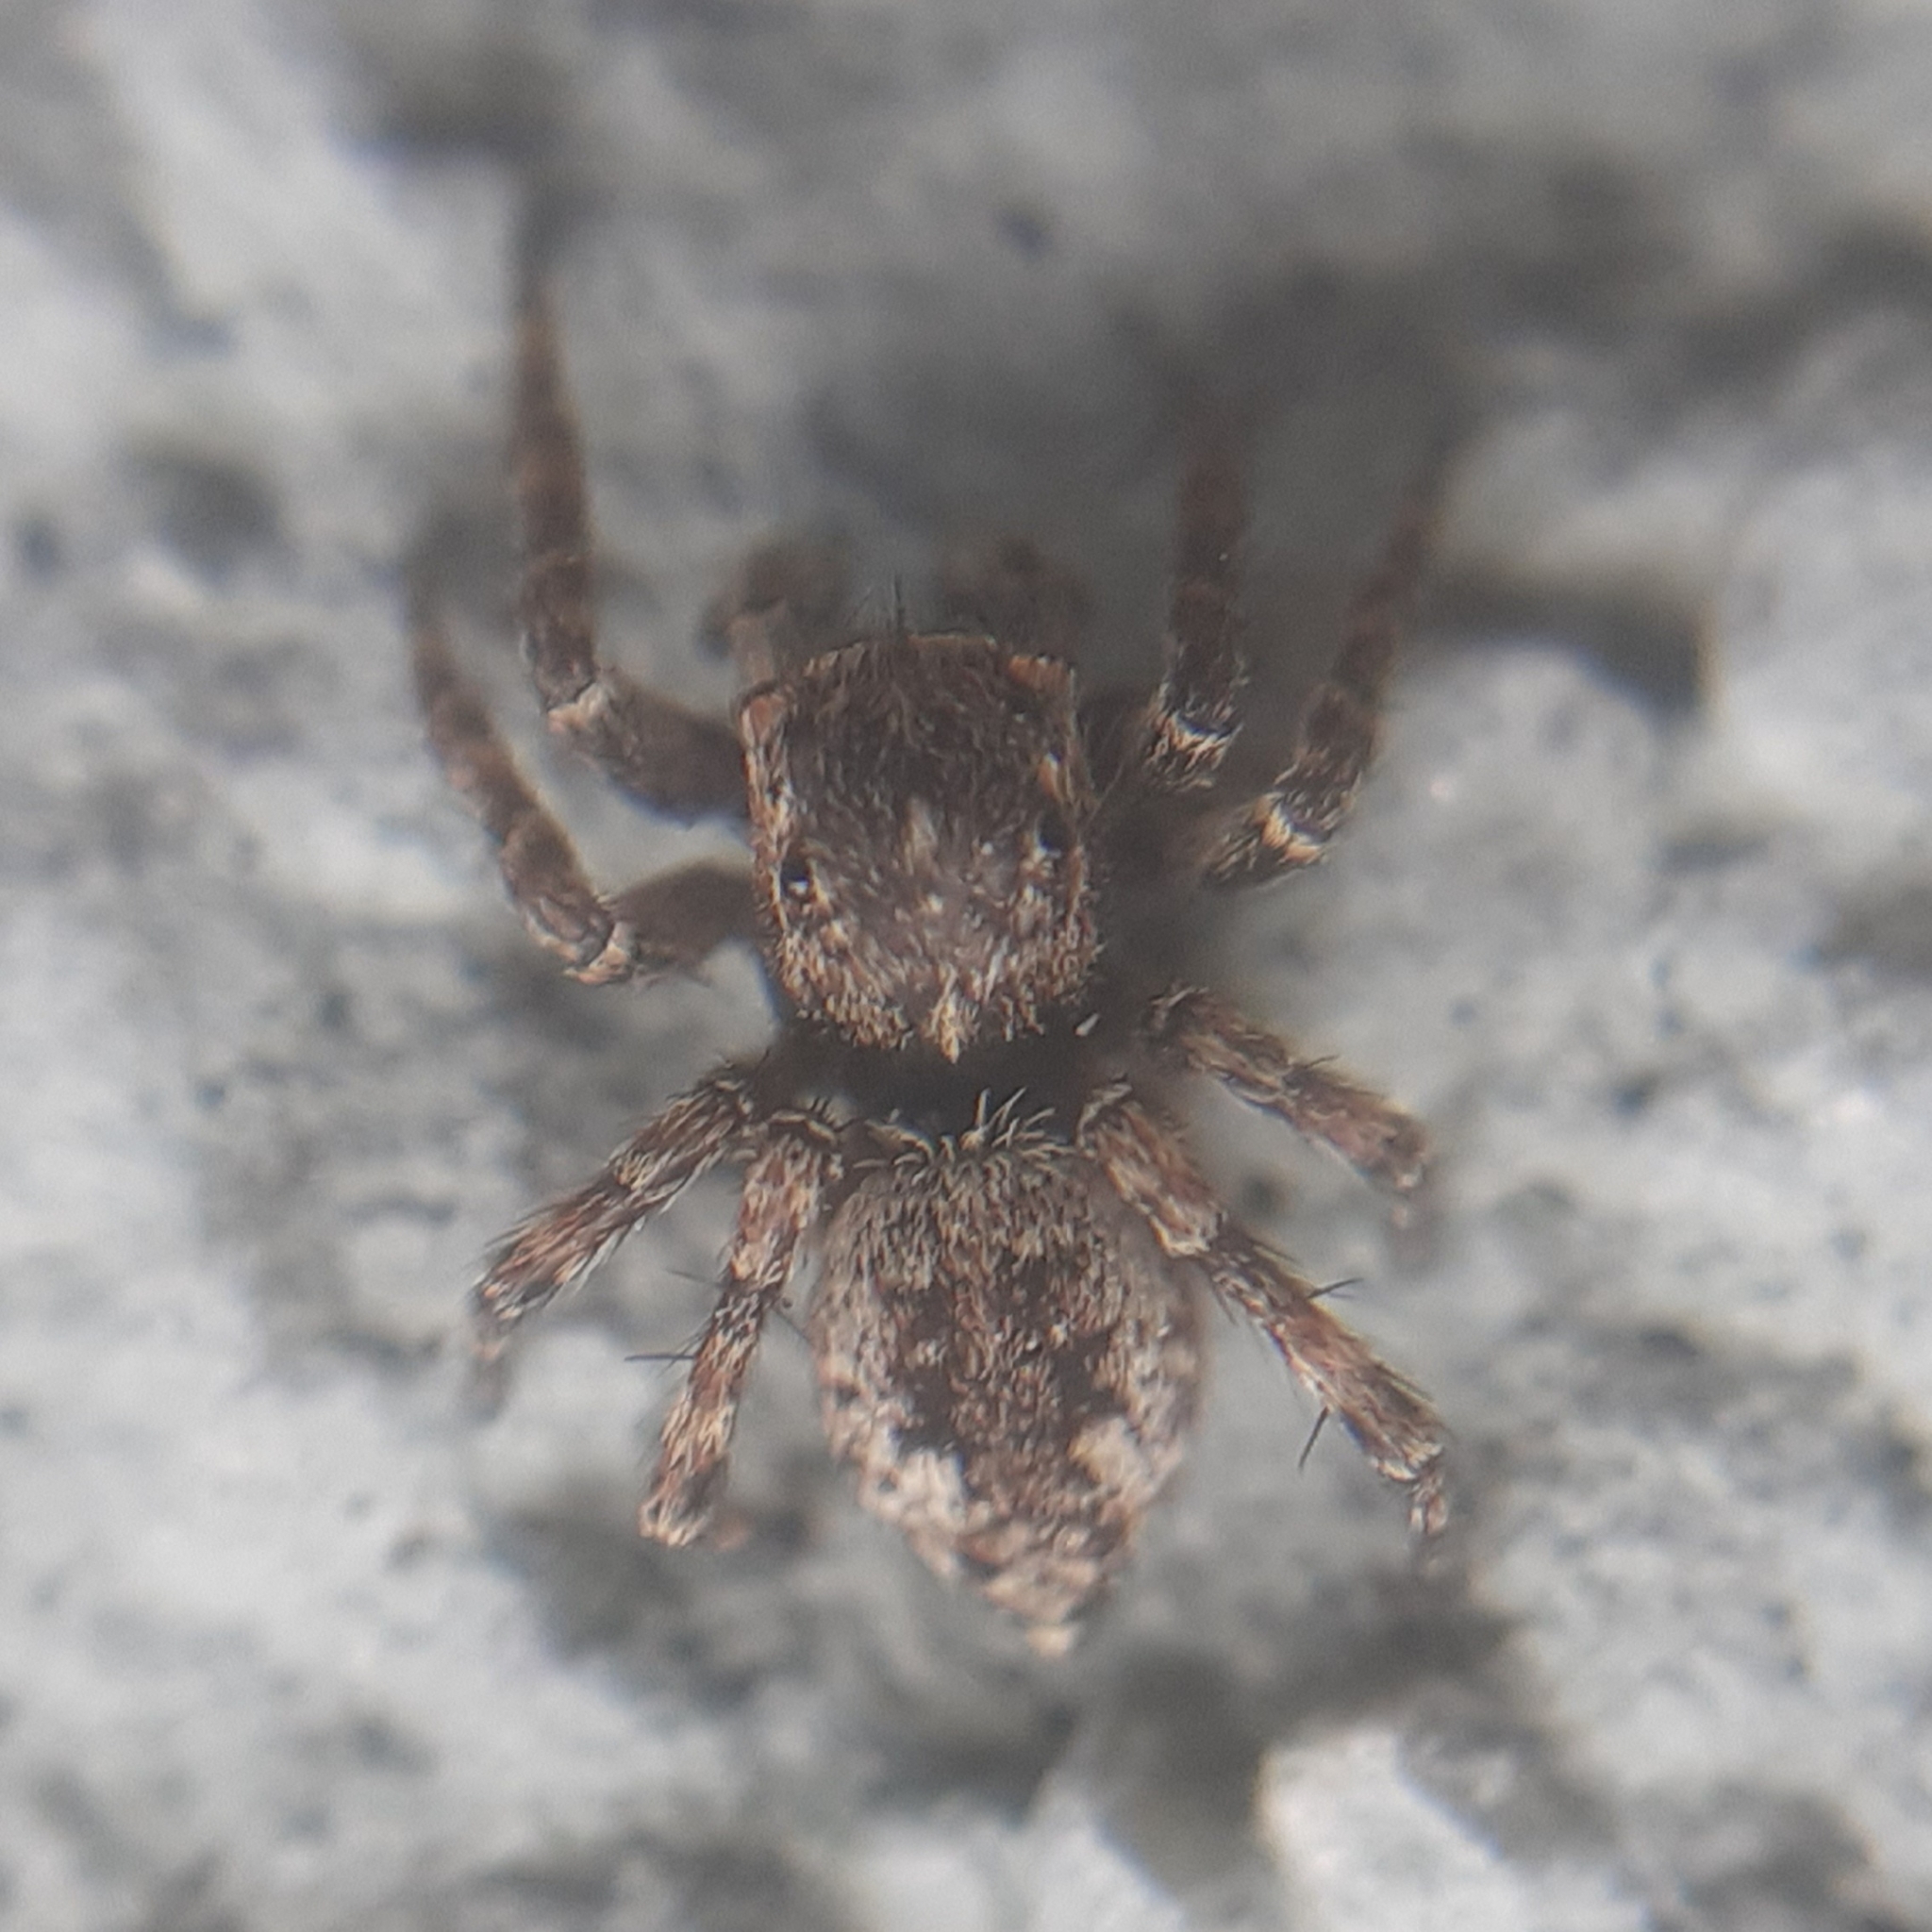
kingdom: Animalia
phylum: Arthropoda
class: Arachnida
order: Araneae
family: Salticidae
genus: Attulus
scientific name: Attulus pubescens
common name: Jumping spider
